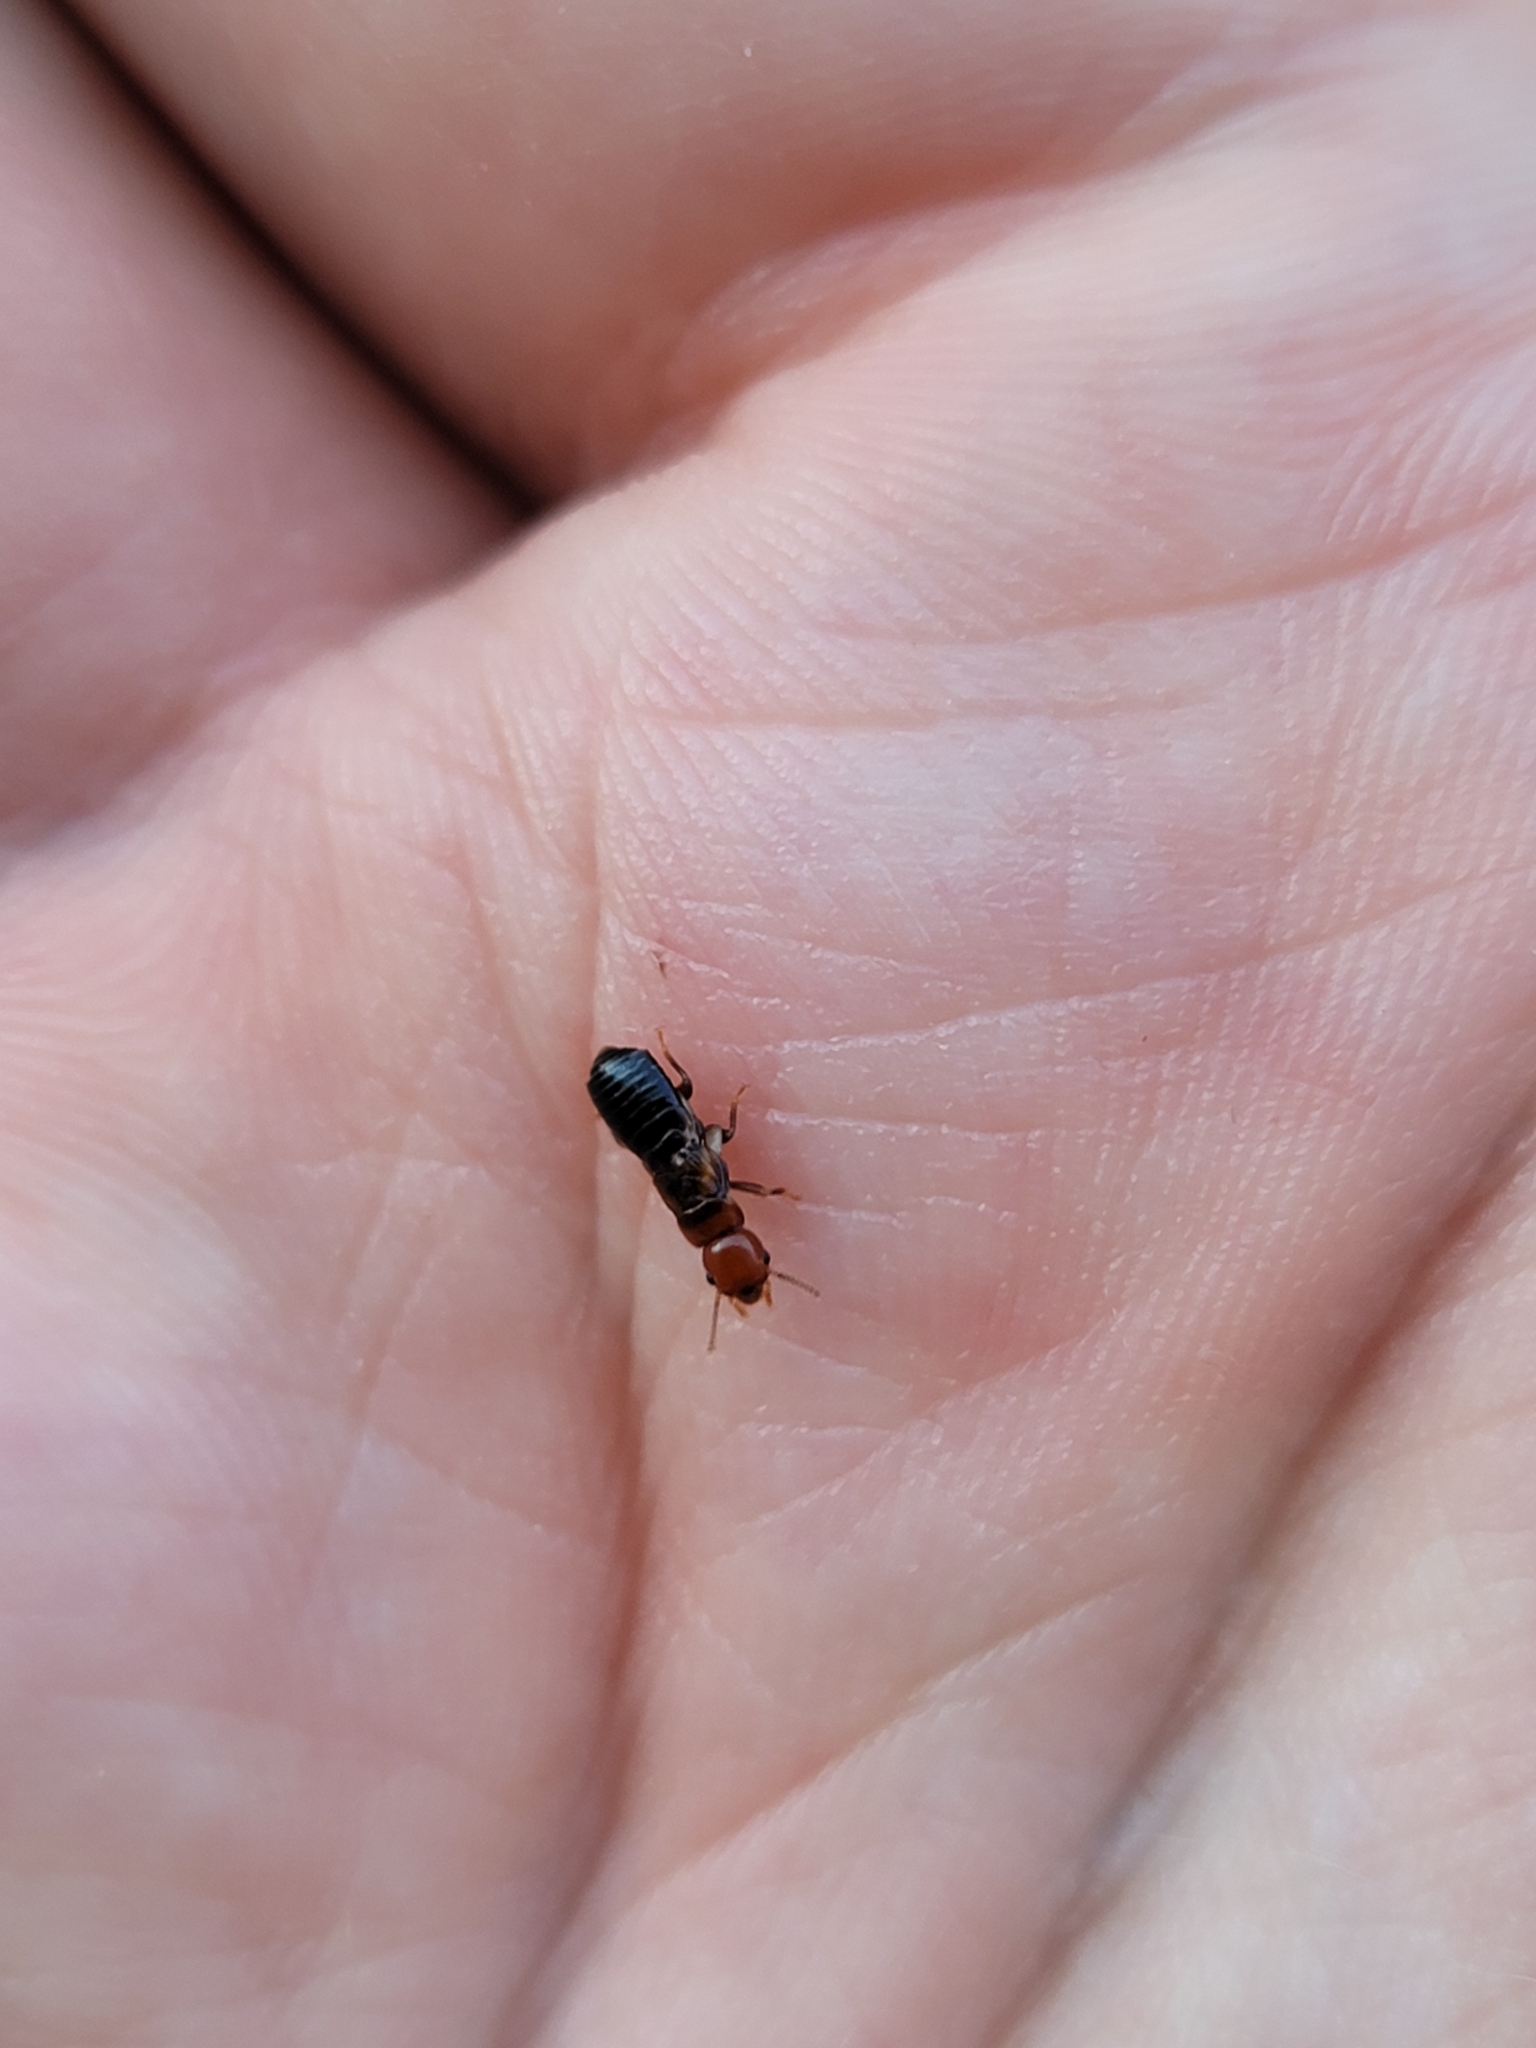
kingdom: Animalia
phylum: Arthropoda
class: Insecta
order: Blattodea
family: Kalotermitidae
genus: Incisitermes
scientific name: Incisitermes minor
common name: Termite
